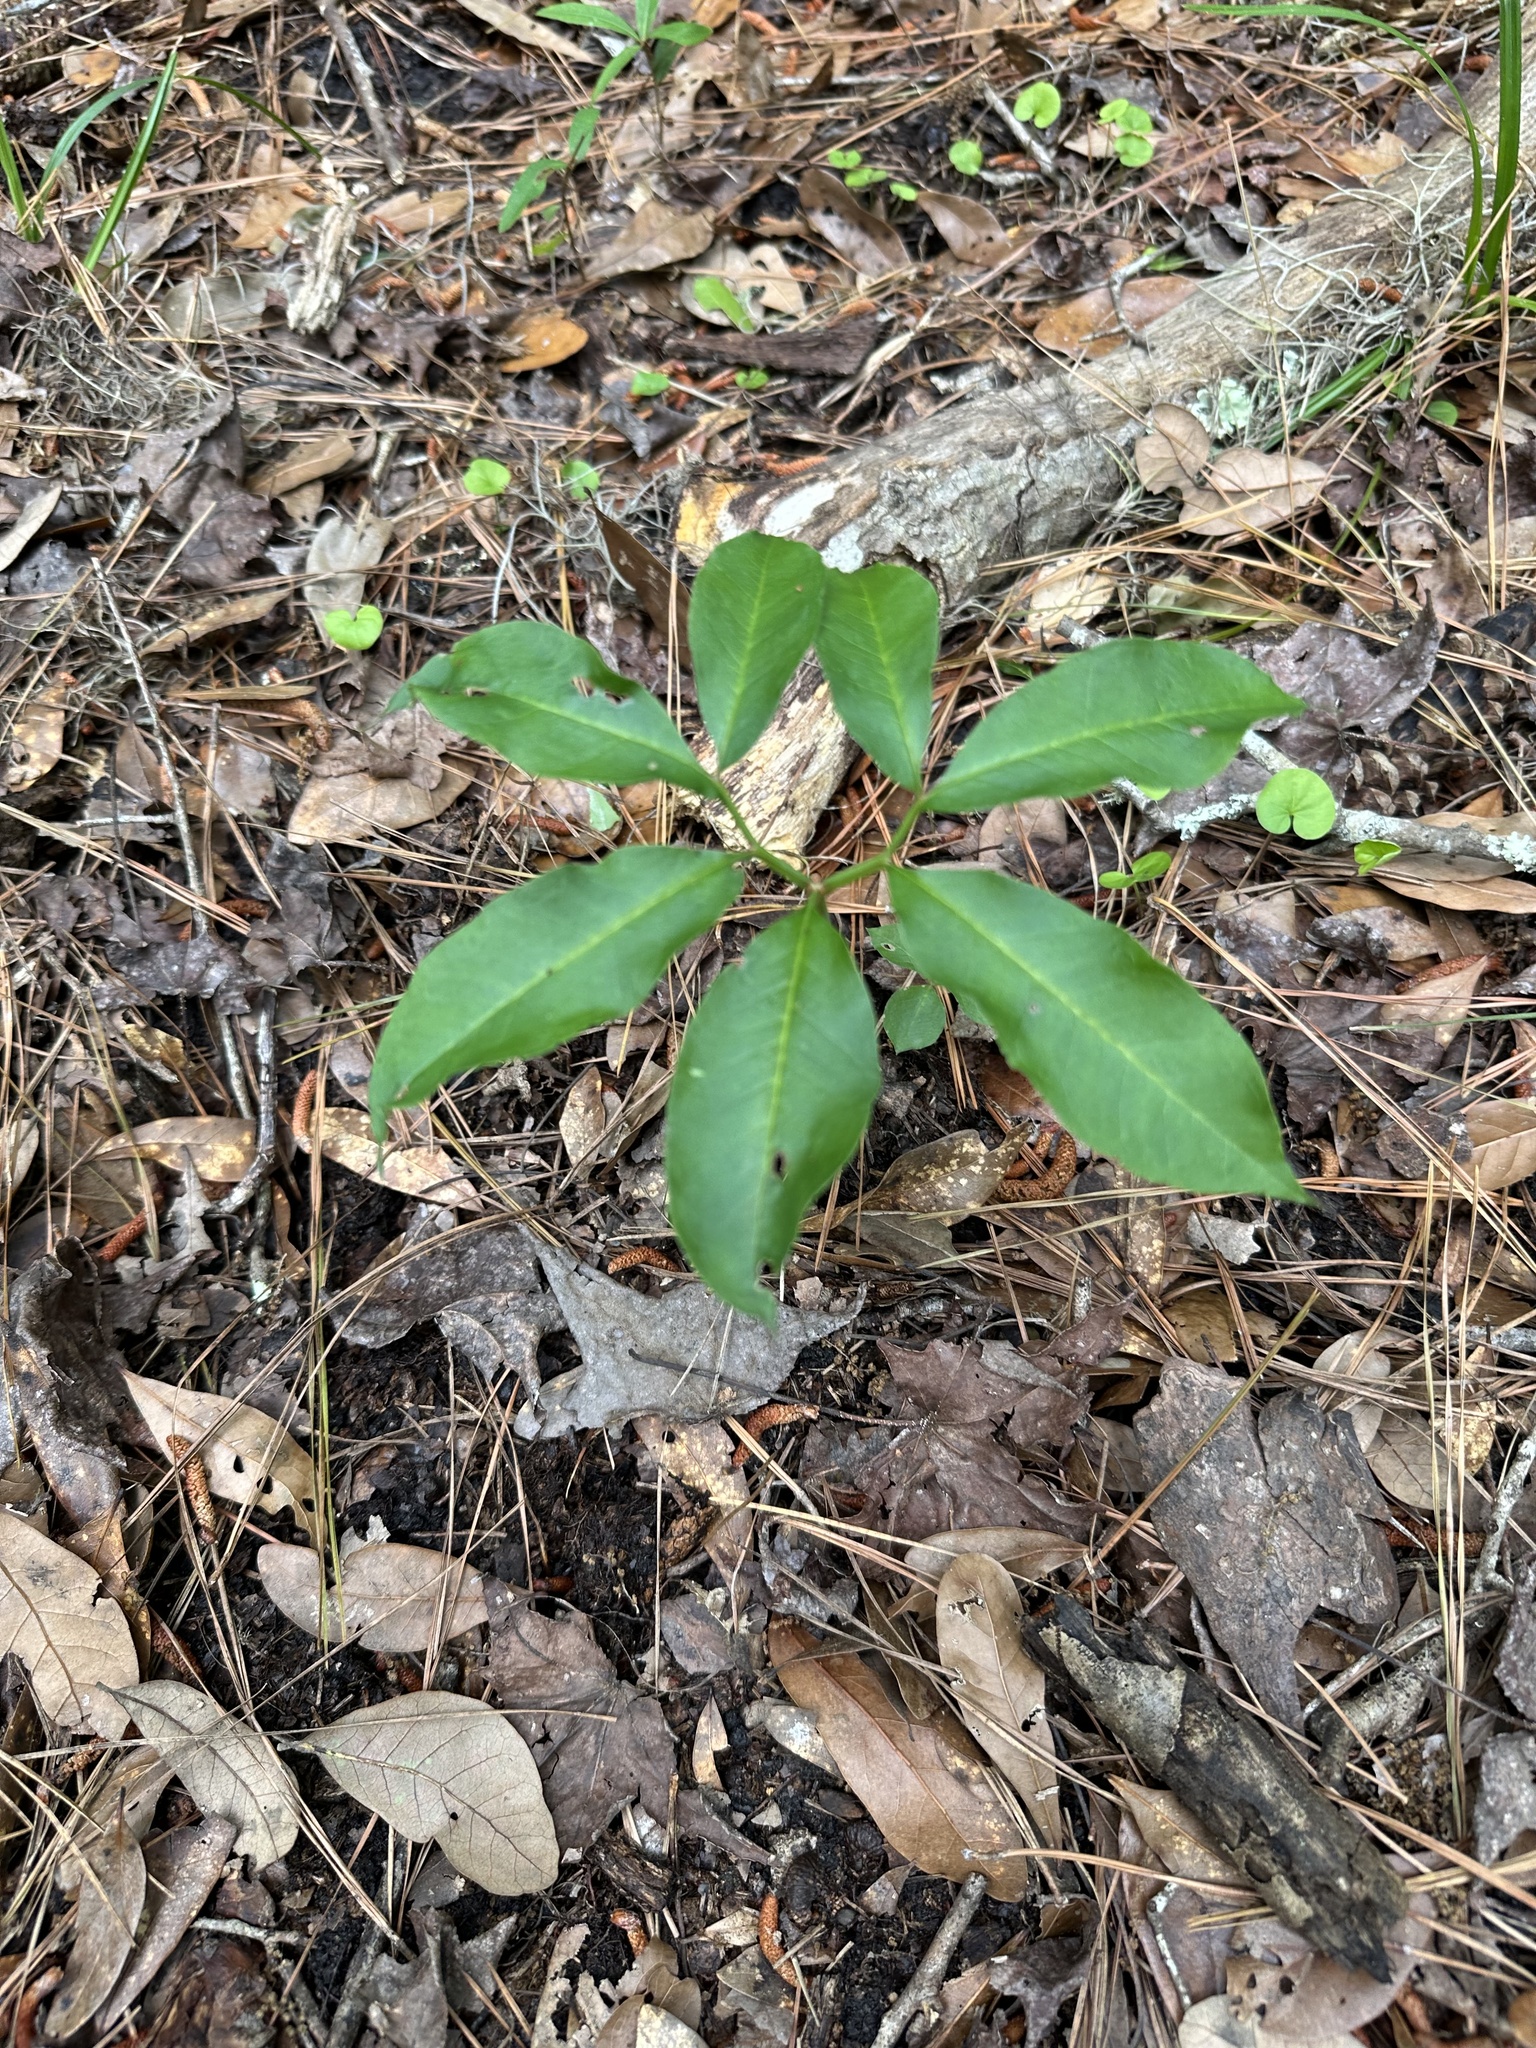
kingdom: Plantae
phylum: Tracheophyta
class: Liliopsida
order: Alismatales
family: Araceae
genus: Arisaema
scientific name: Arisaema dracontium
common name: Dragon-arum
